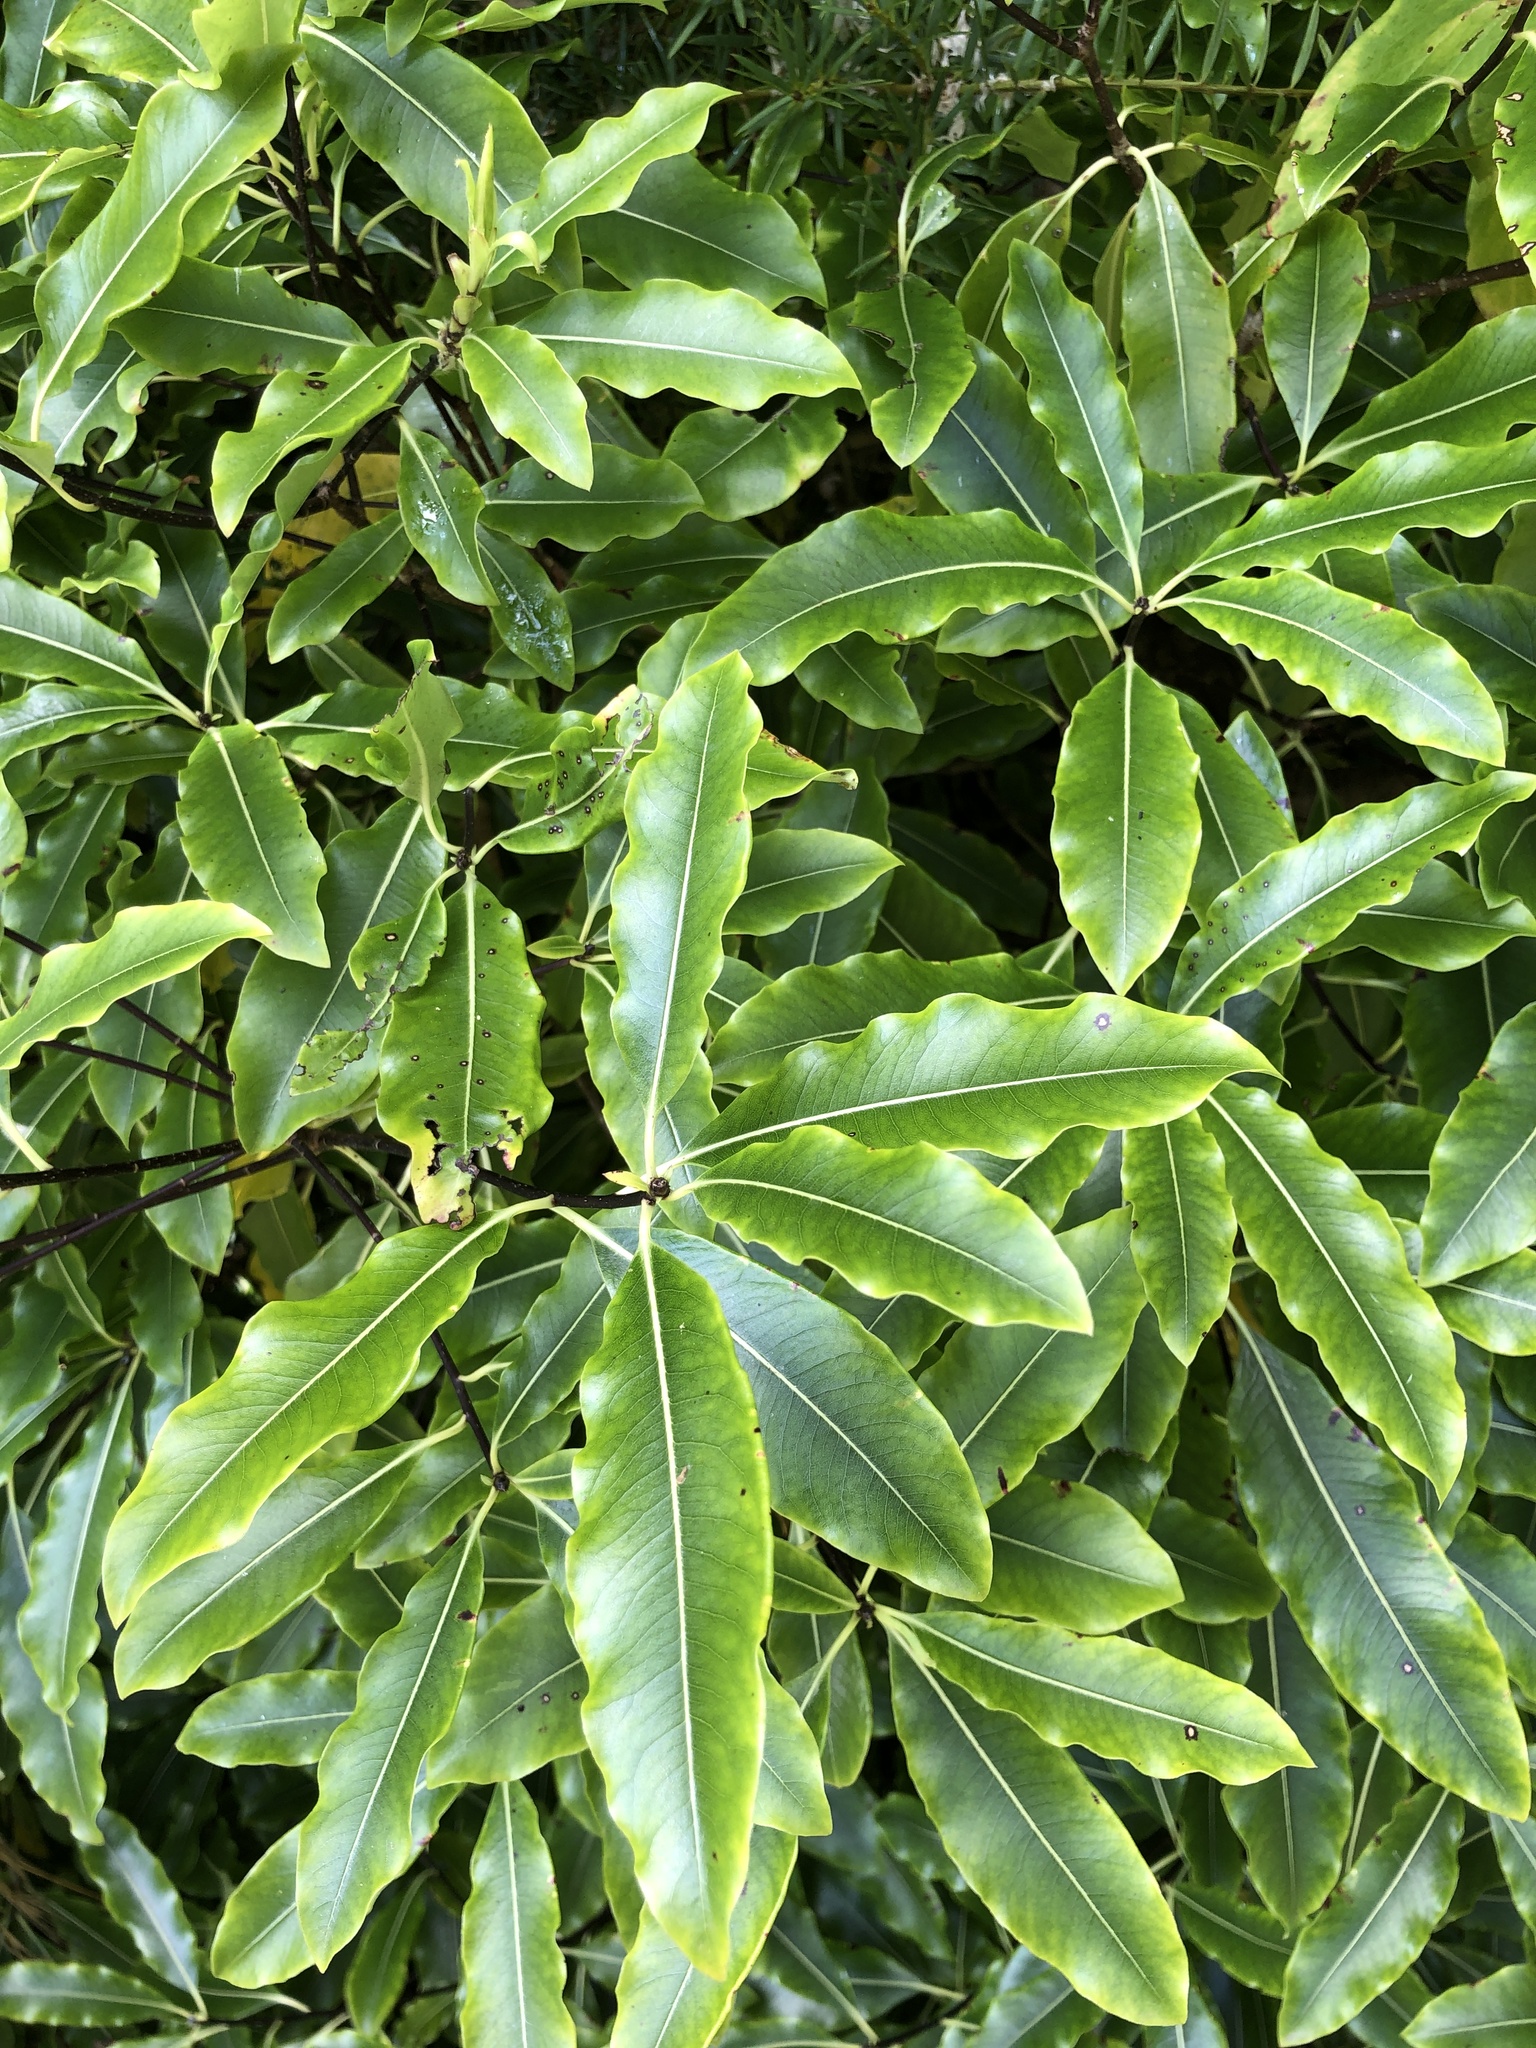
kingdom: Plantae
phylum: Tracheophyta
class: Magnoliopsida
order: Apiales
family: Pittosporaceae
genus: Pittosporum
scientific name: Pittosporum eugenioides
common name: Lemonwood
